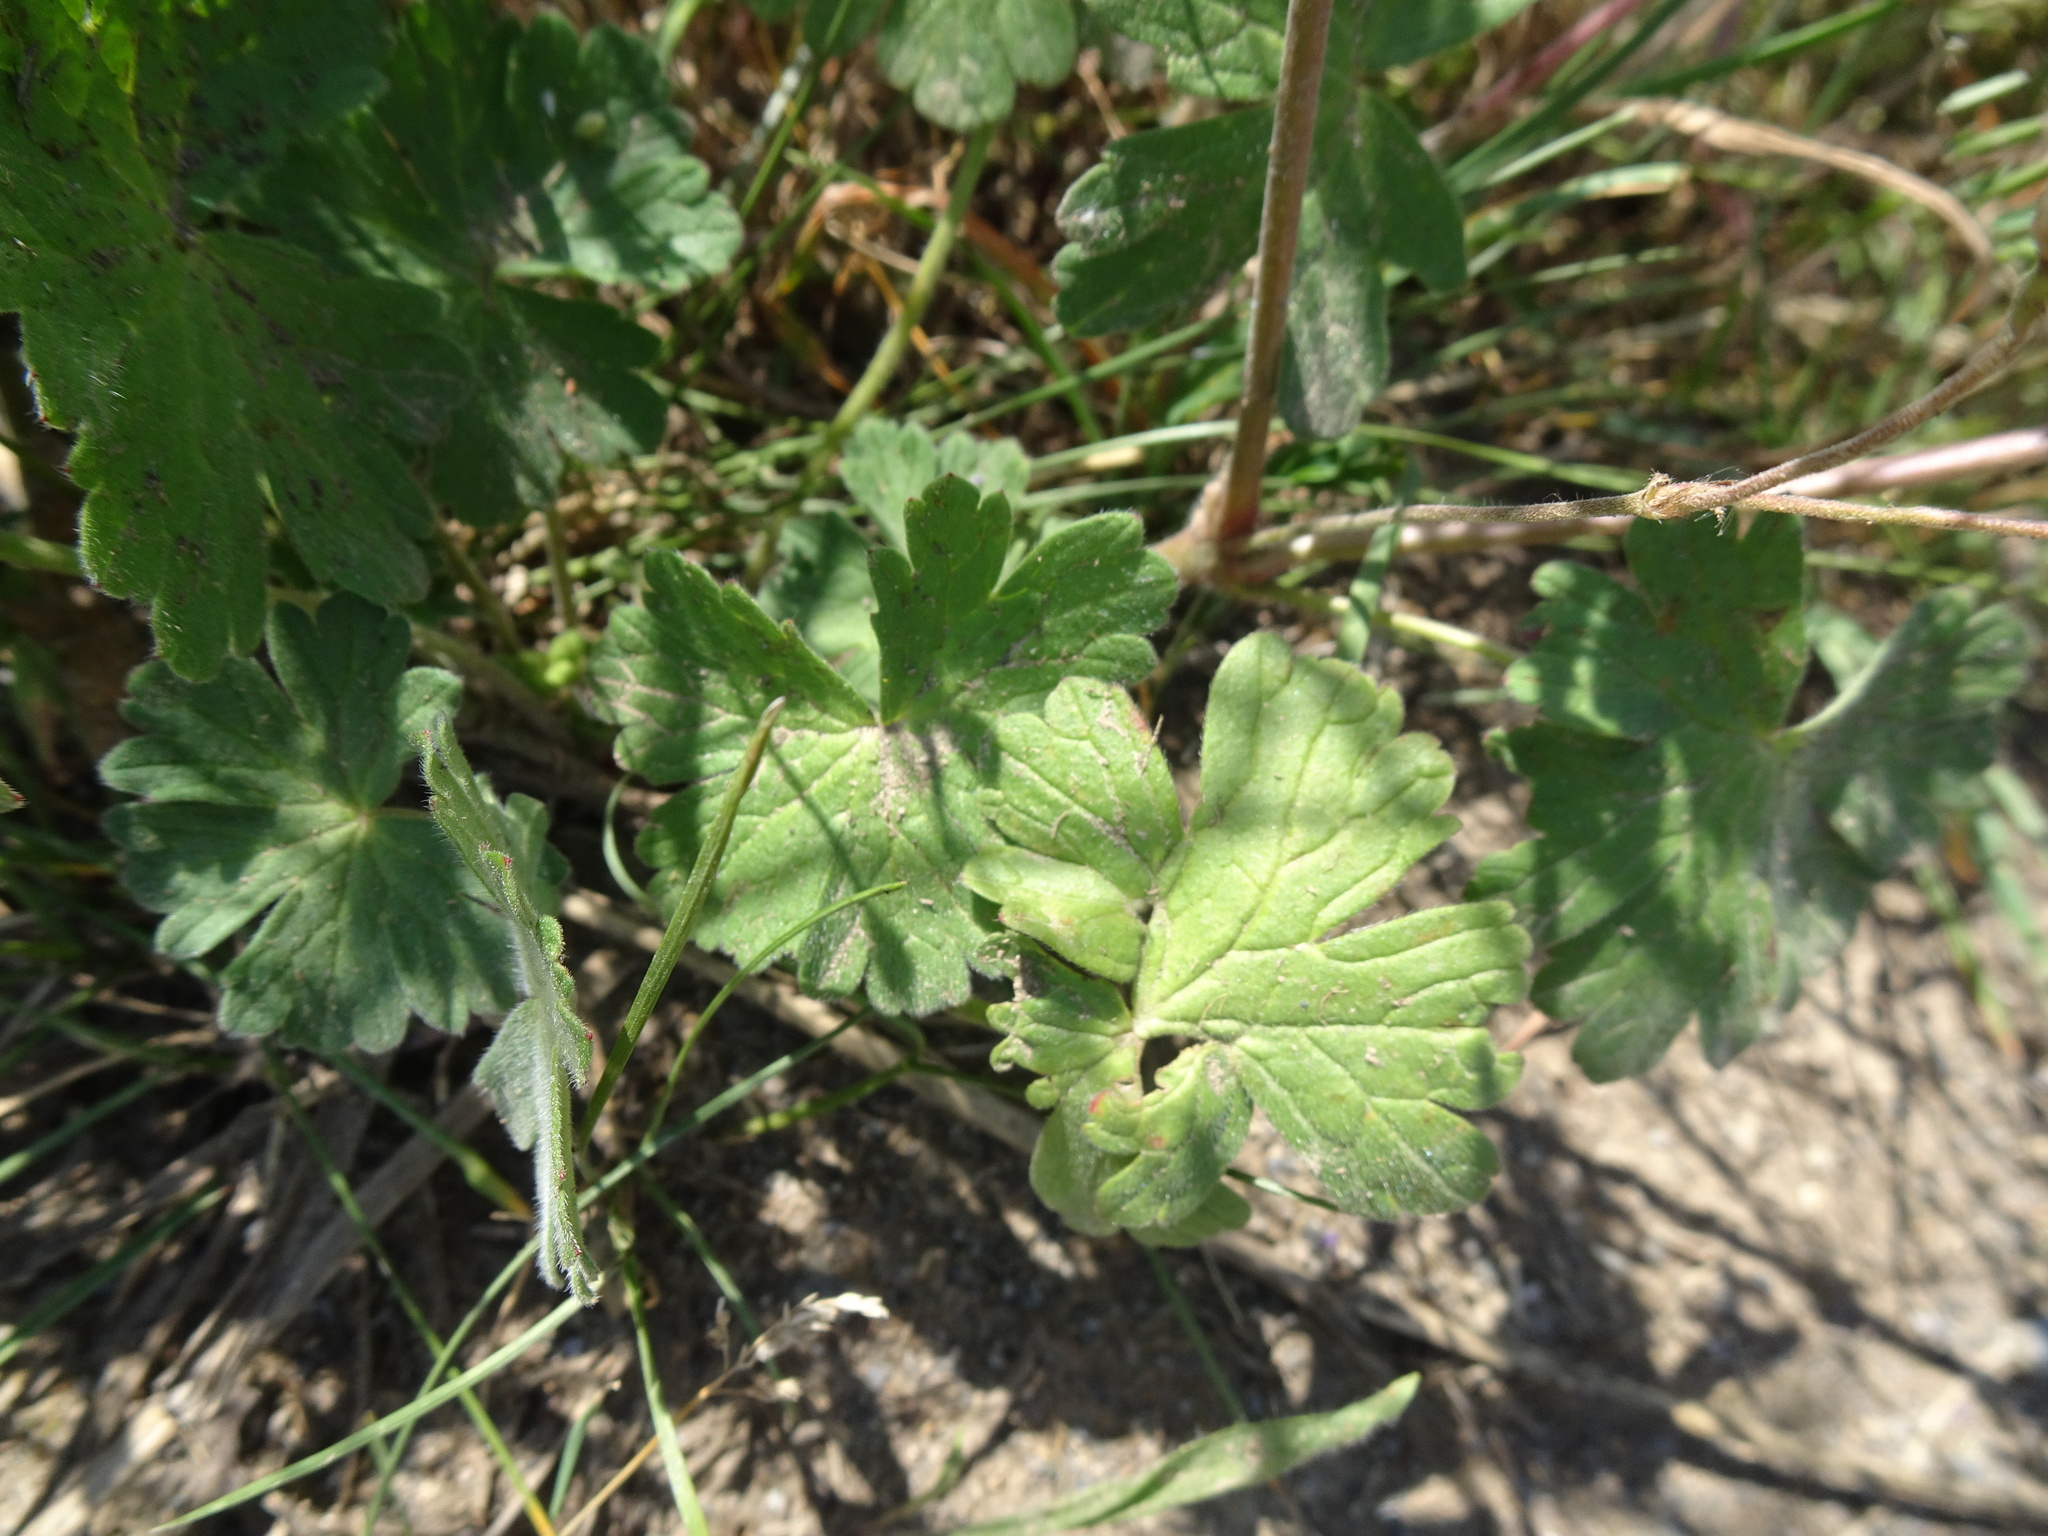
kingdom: Plantae
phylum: Tracheophyta
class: Magnoliopsida
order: Geraniales
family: Geraniaceae
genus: Geranium
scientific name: Geranium pyrenaicum
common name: Hedgerow crane's-bill
